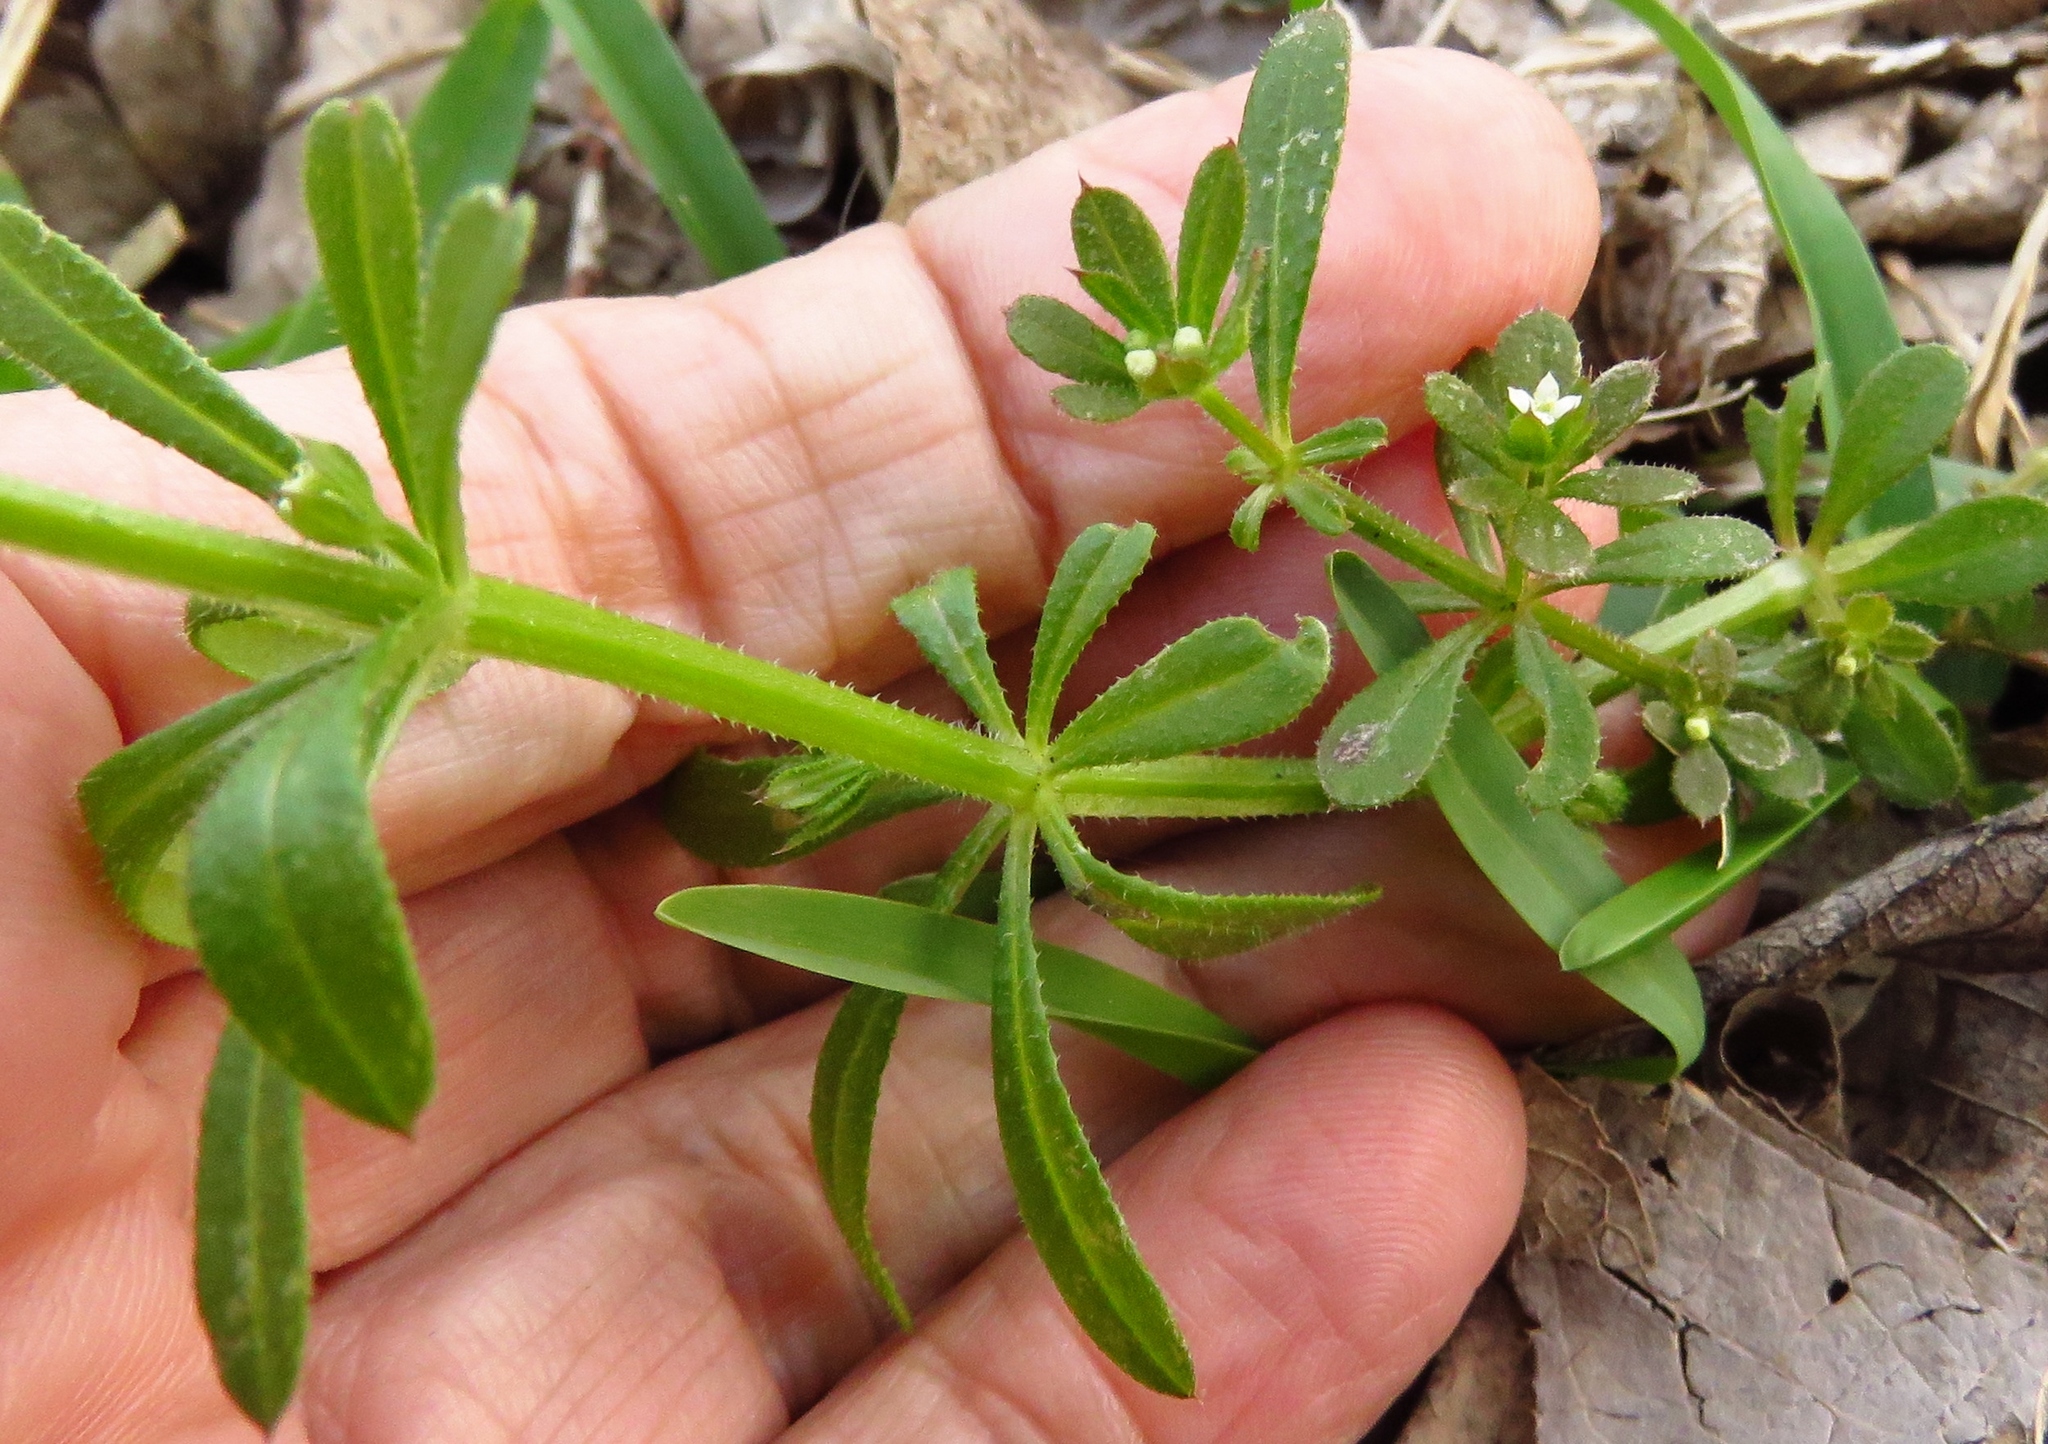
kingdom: Plantae
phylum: Tracheophyta
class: Magnoliopsida
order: Gentianales
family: Rubiaceae
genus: Galium
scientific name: Galium aparine
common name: Cleavers
